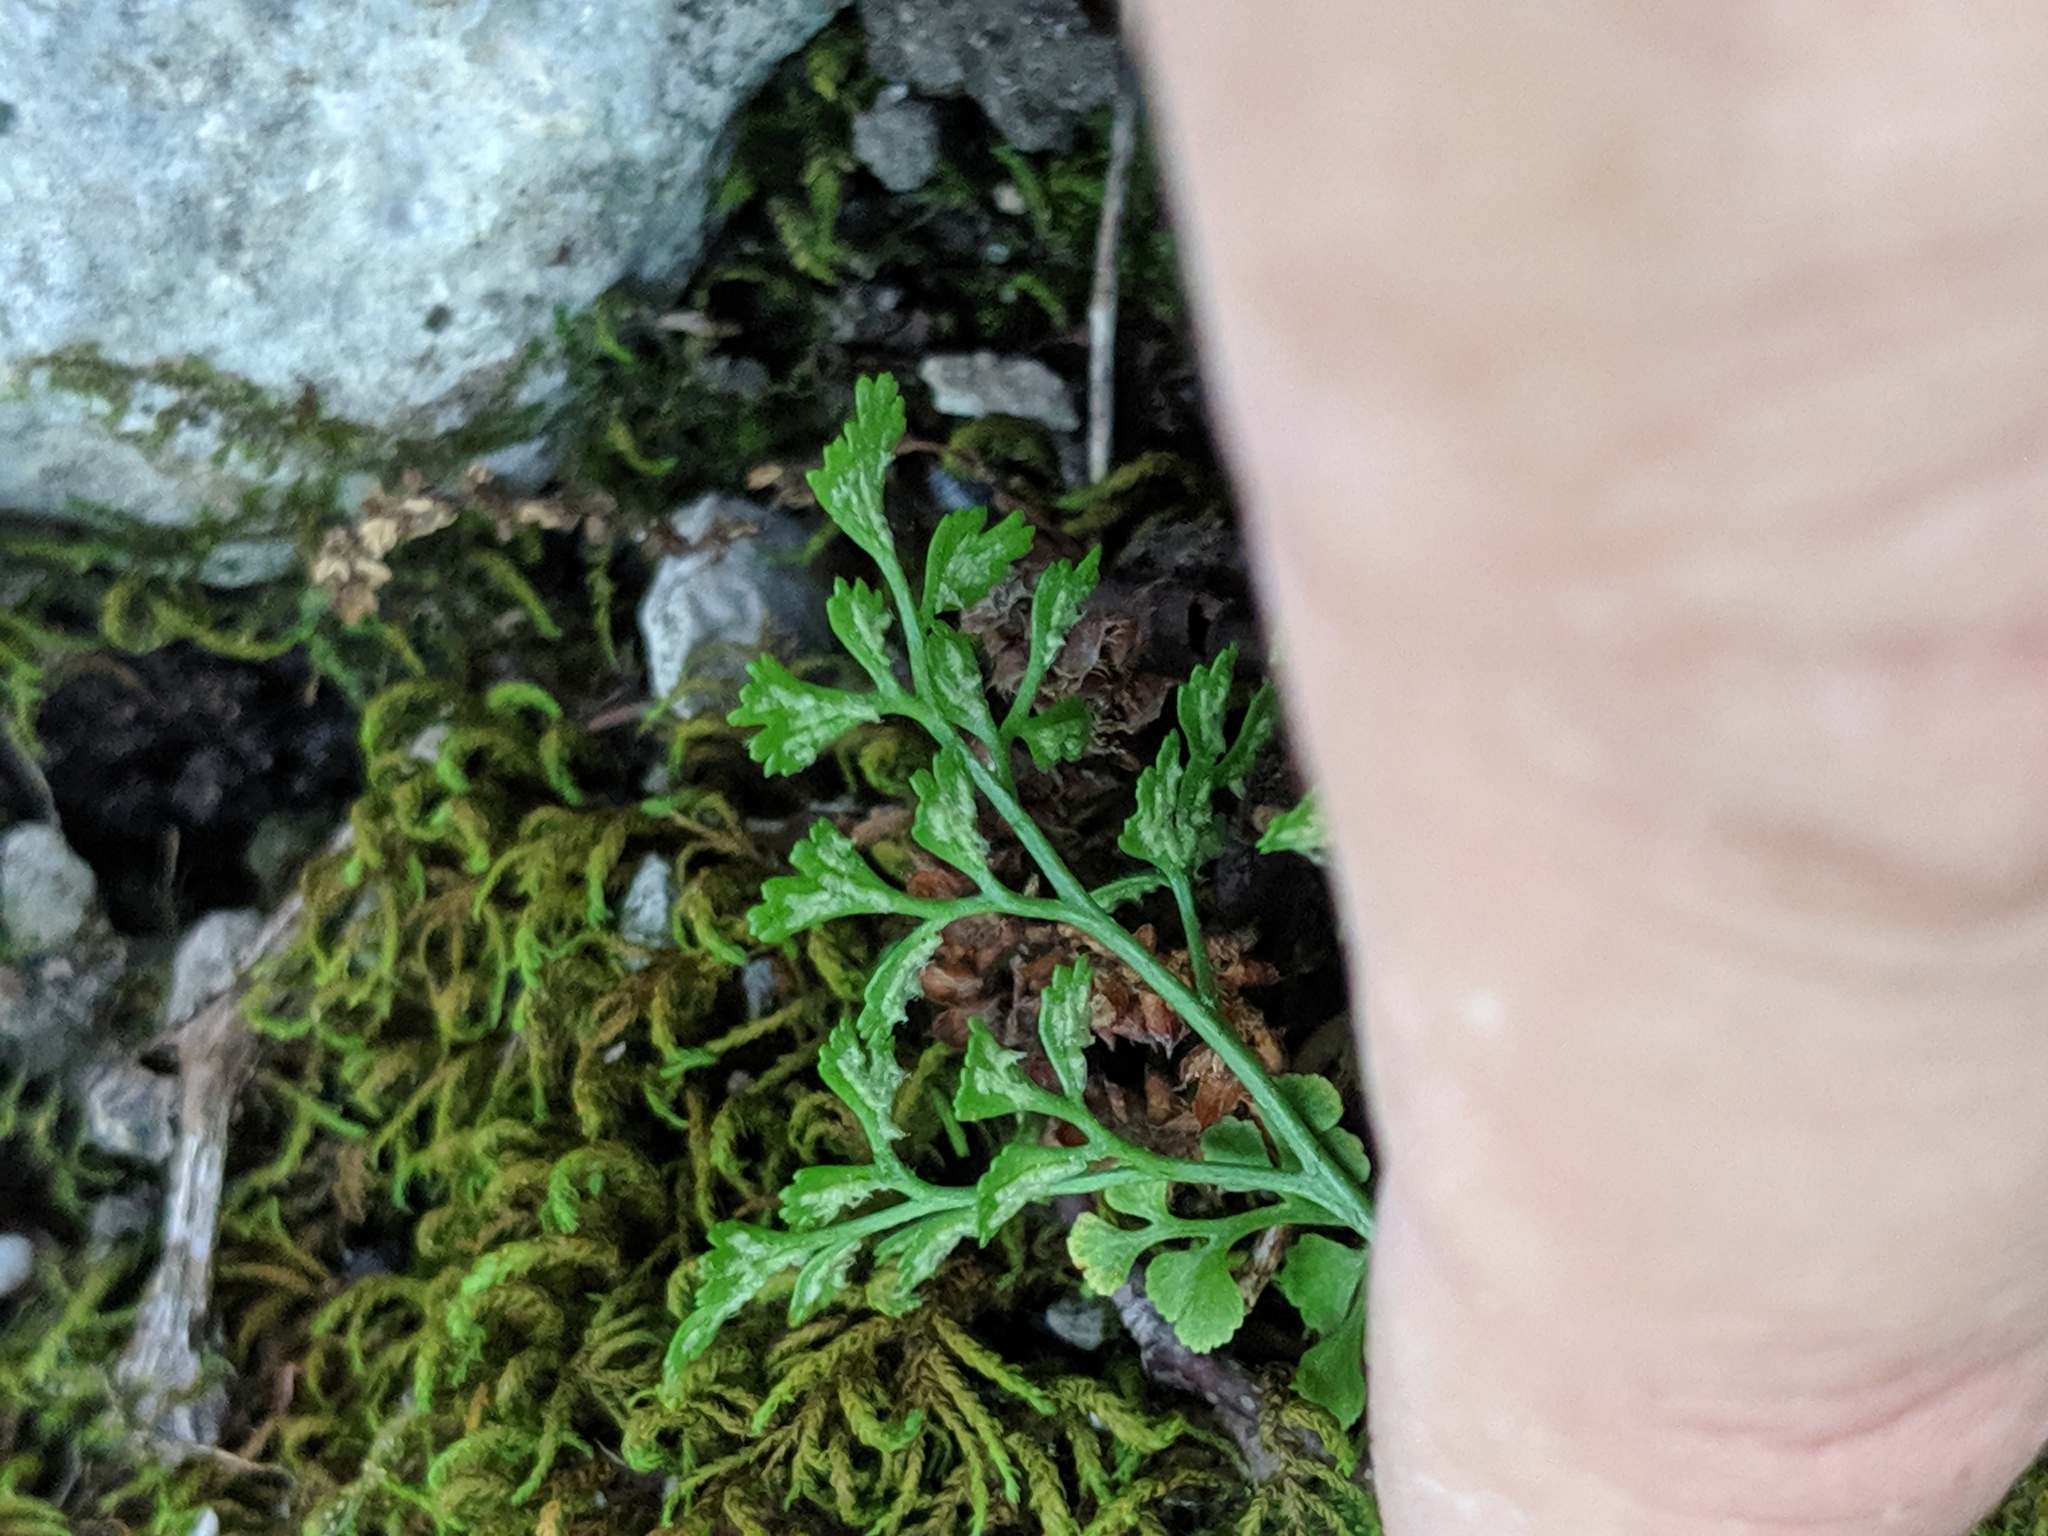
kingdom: Plantae
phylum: Tracheophyta
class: Polypodiopsida
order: Polypodiales
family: Aspleniaceae
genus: Asplenium
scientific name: Asplenium ruta-muraria
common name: Wall-rue
